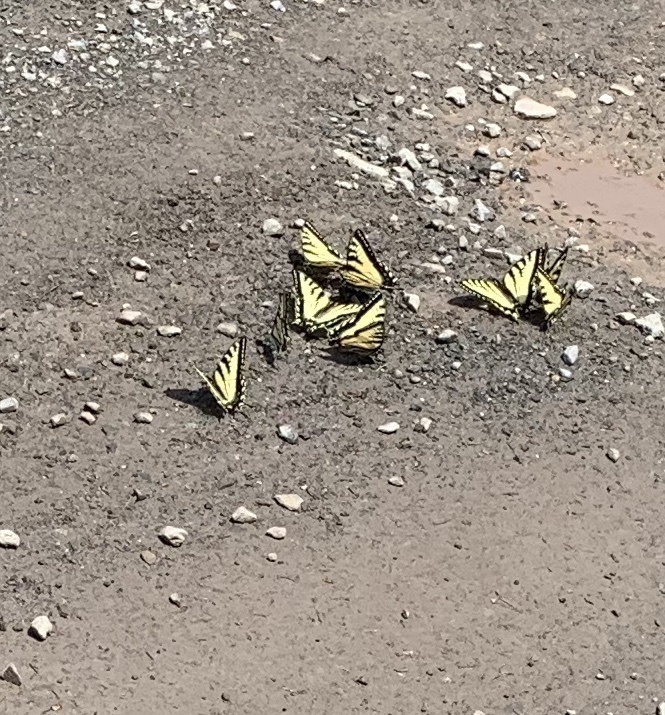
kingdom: Animalia
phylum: Arthropoda
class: Insecta
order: Lepidoptera
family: Papilionidae
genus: Papilio
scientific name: Papilio canadensis
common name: Canadian tiger swallowtail
